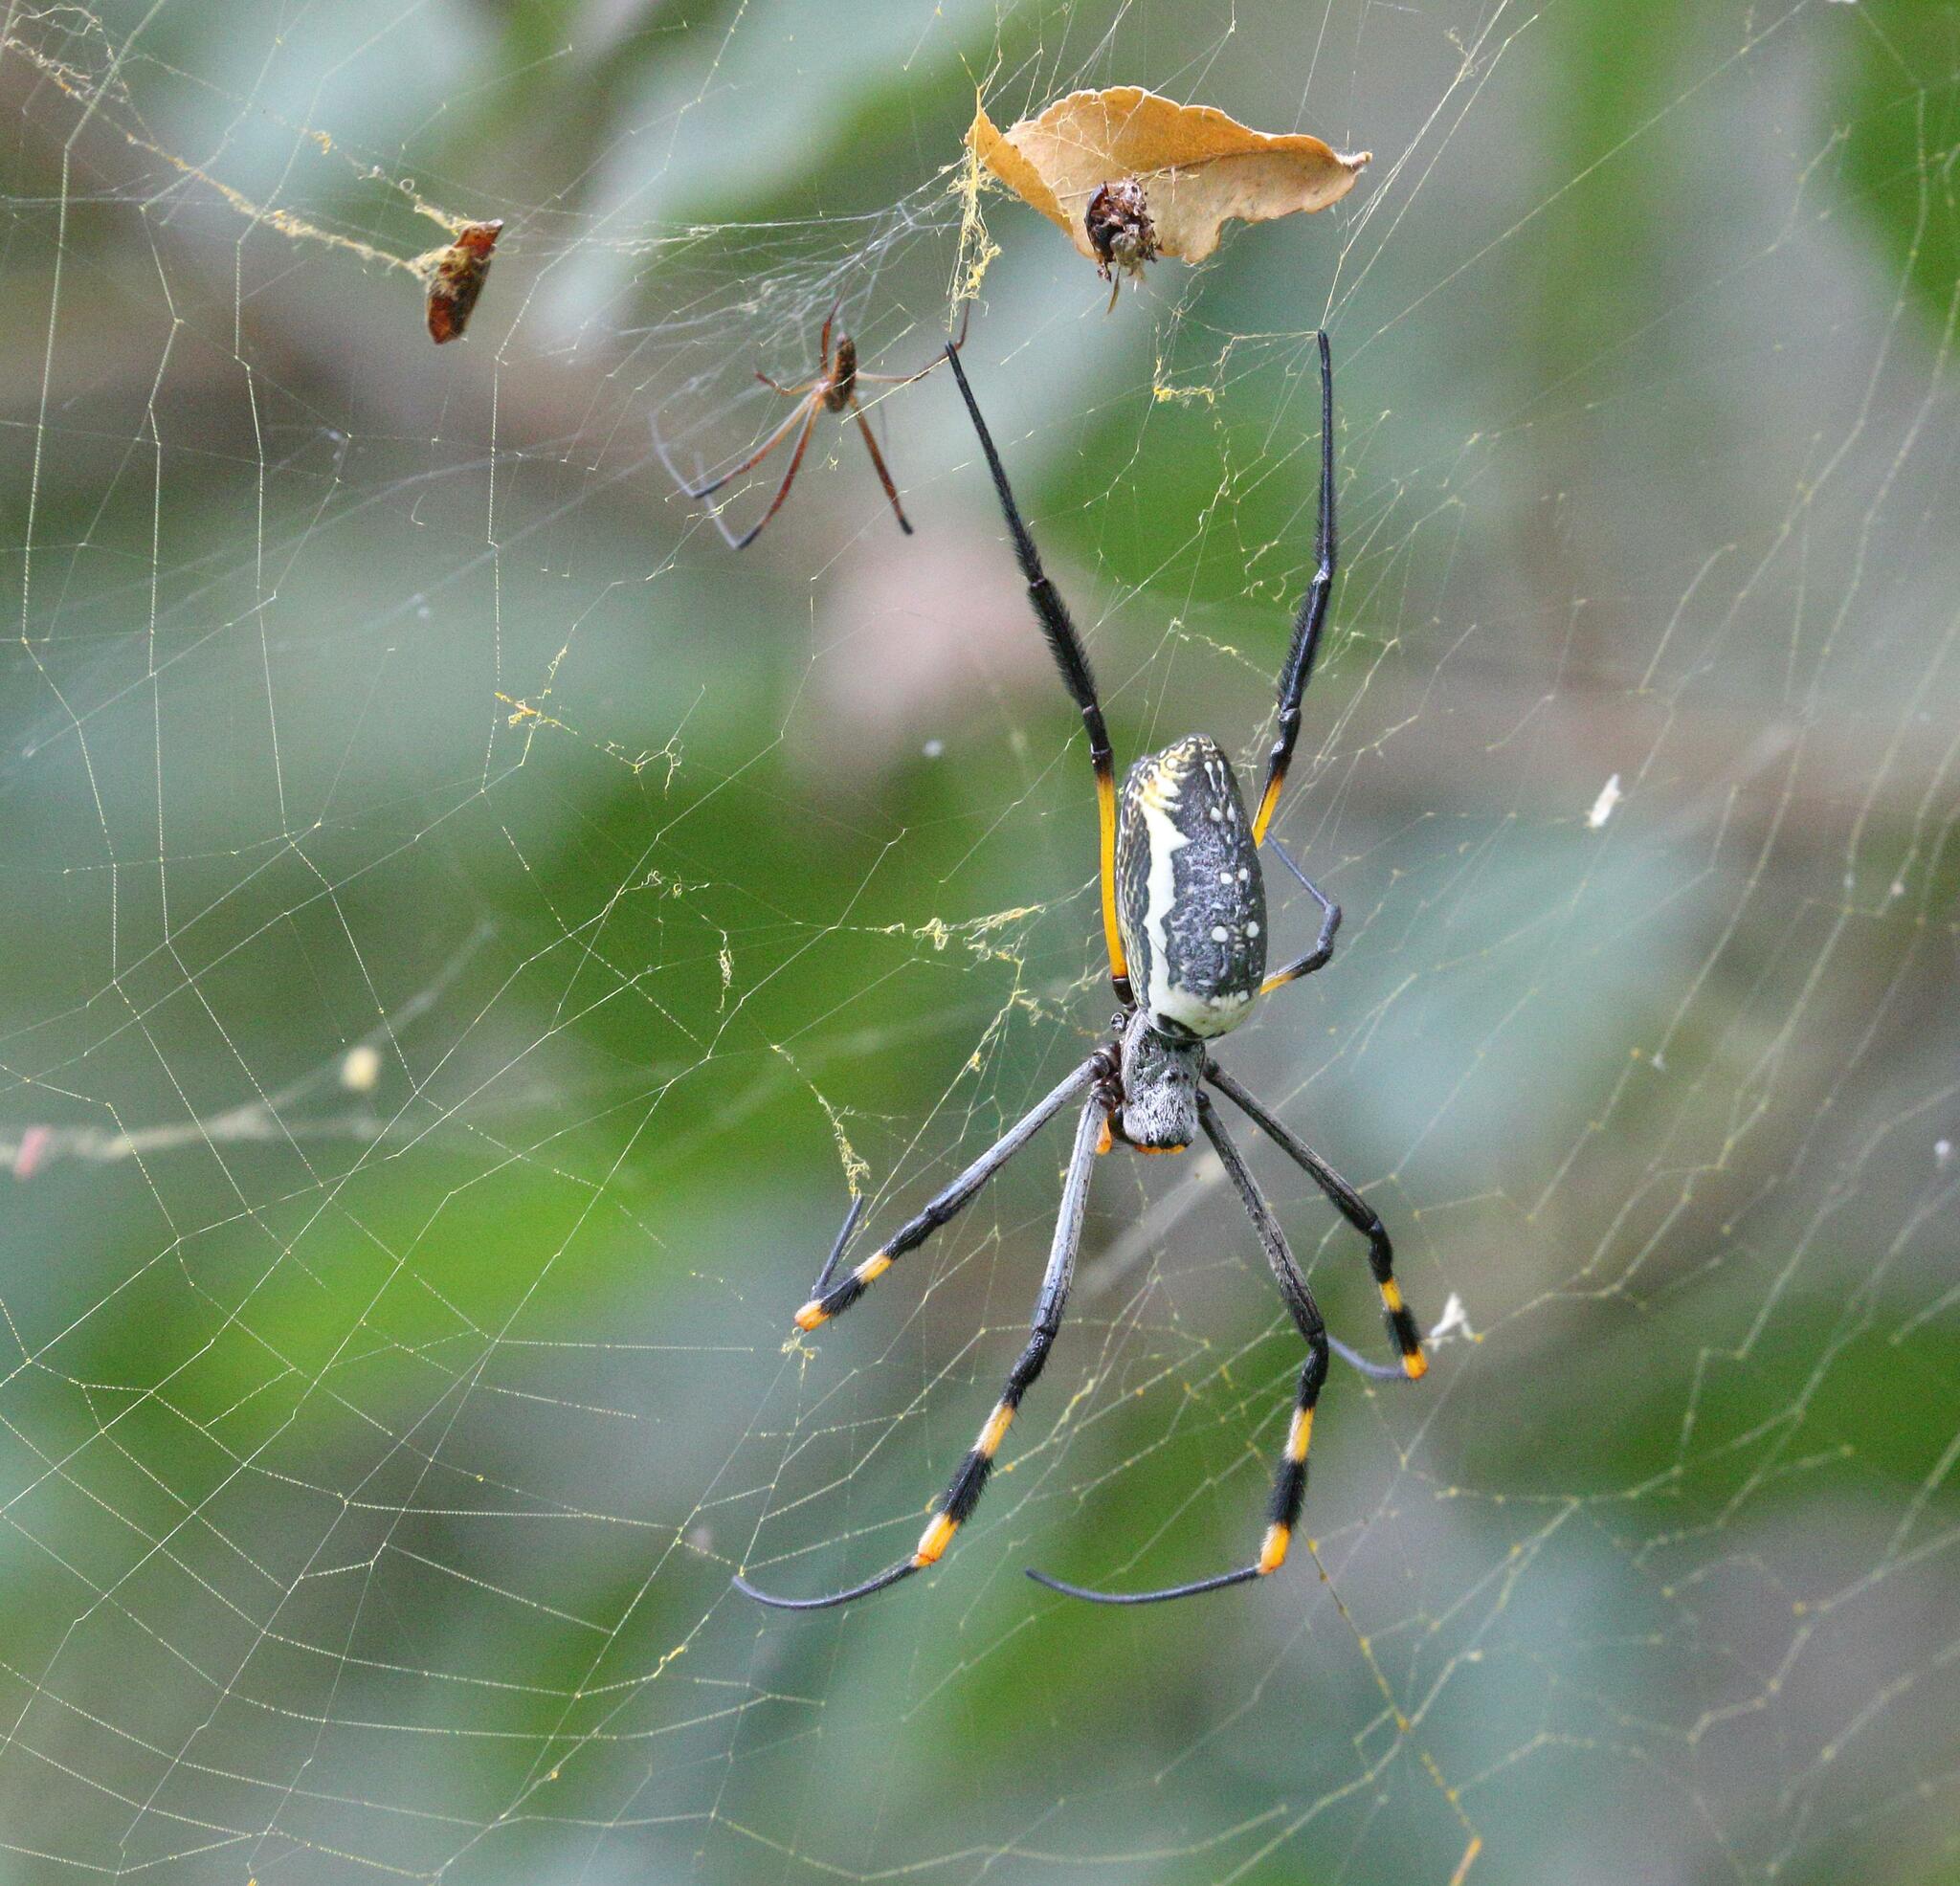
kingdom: Animalia
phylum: Arthropoda
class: Arachnida
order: Araneae
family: Araneidae
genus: Trichonephila
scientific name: Trichonephila senegalensis
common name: Banded golden orb weaver
